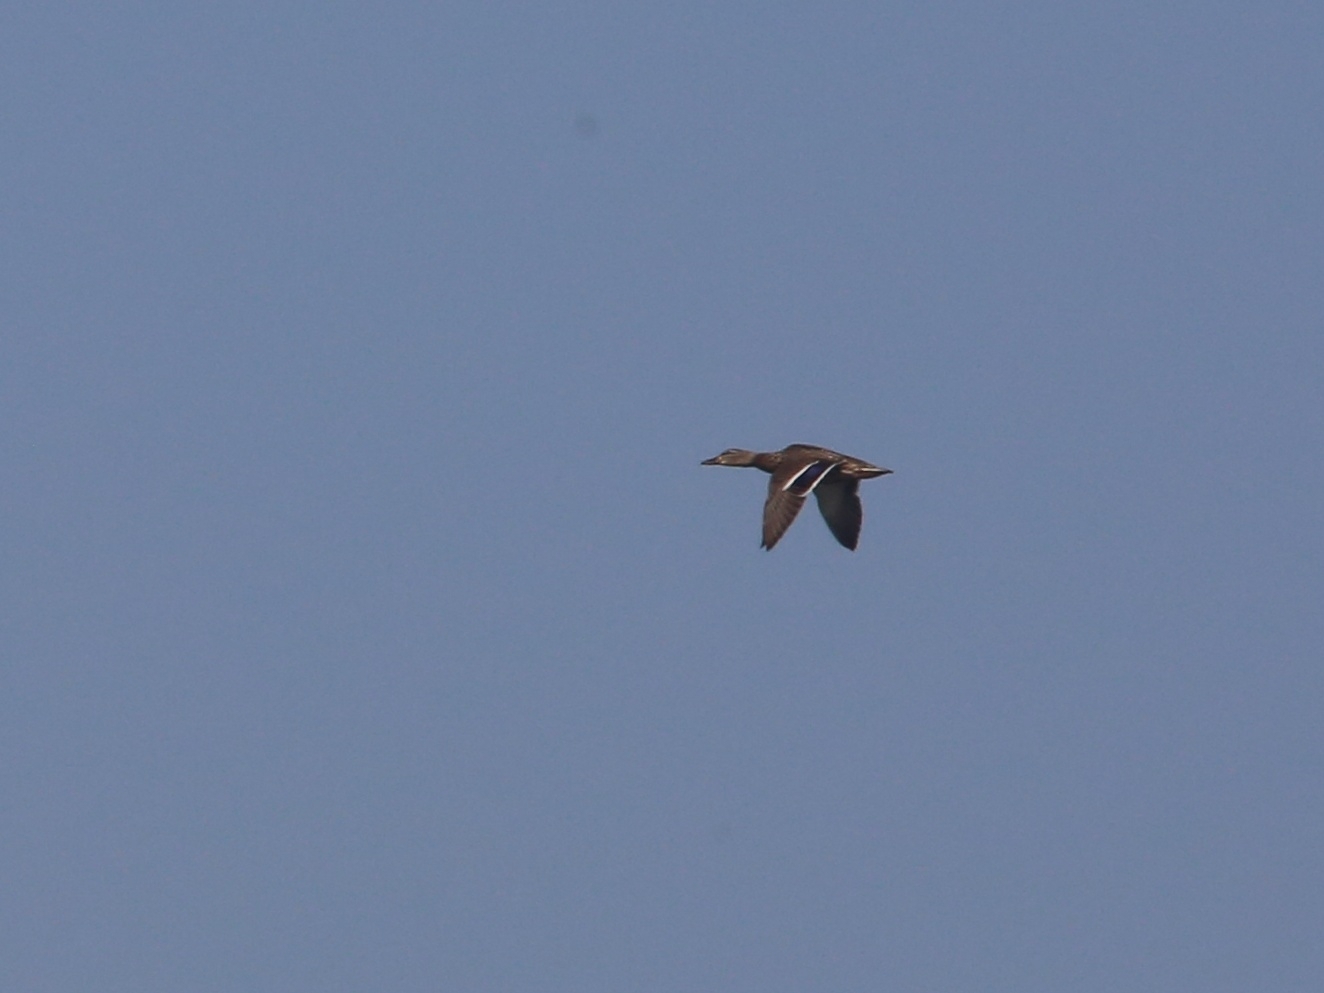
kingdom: Animalia
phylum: Chordata
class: Aves
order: Anseriformes
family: Anatidae
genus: Anas
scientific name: Anas platyrhynchos
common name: Mallard
